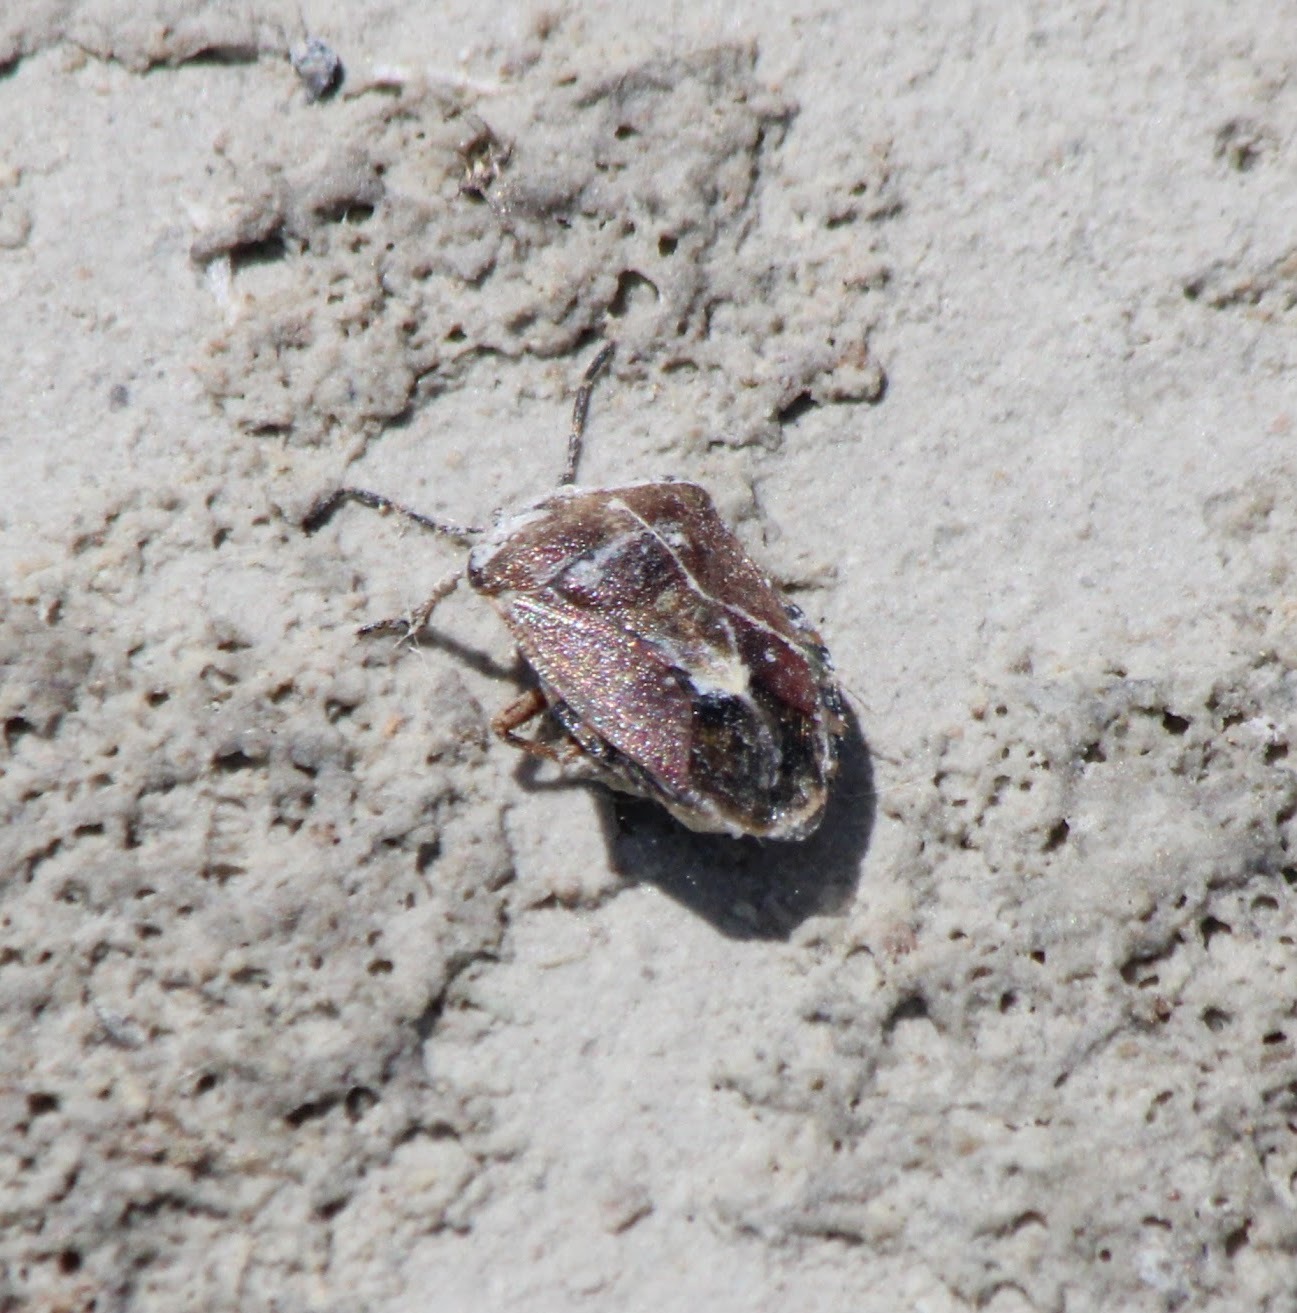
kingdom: Animalia
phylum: Arthropoda
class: Insecta
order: Hemiptera
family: Pentatomidae
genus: Dolycoris
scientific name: Dolycoris baccarum
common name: Sloe bug
